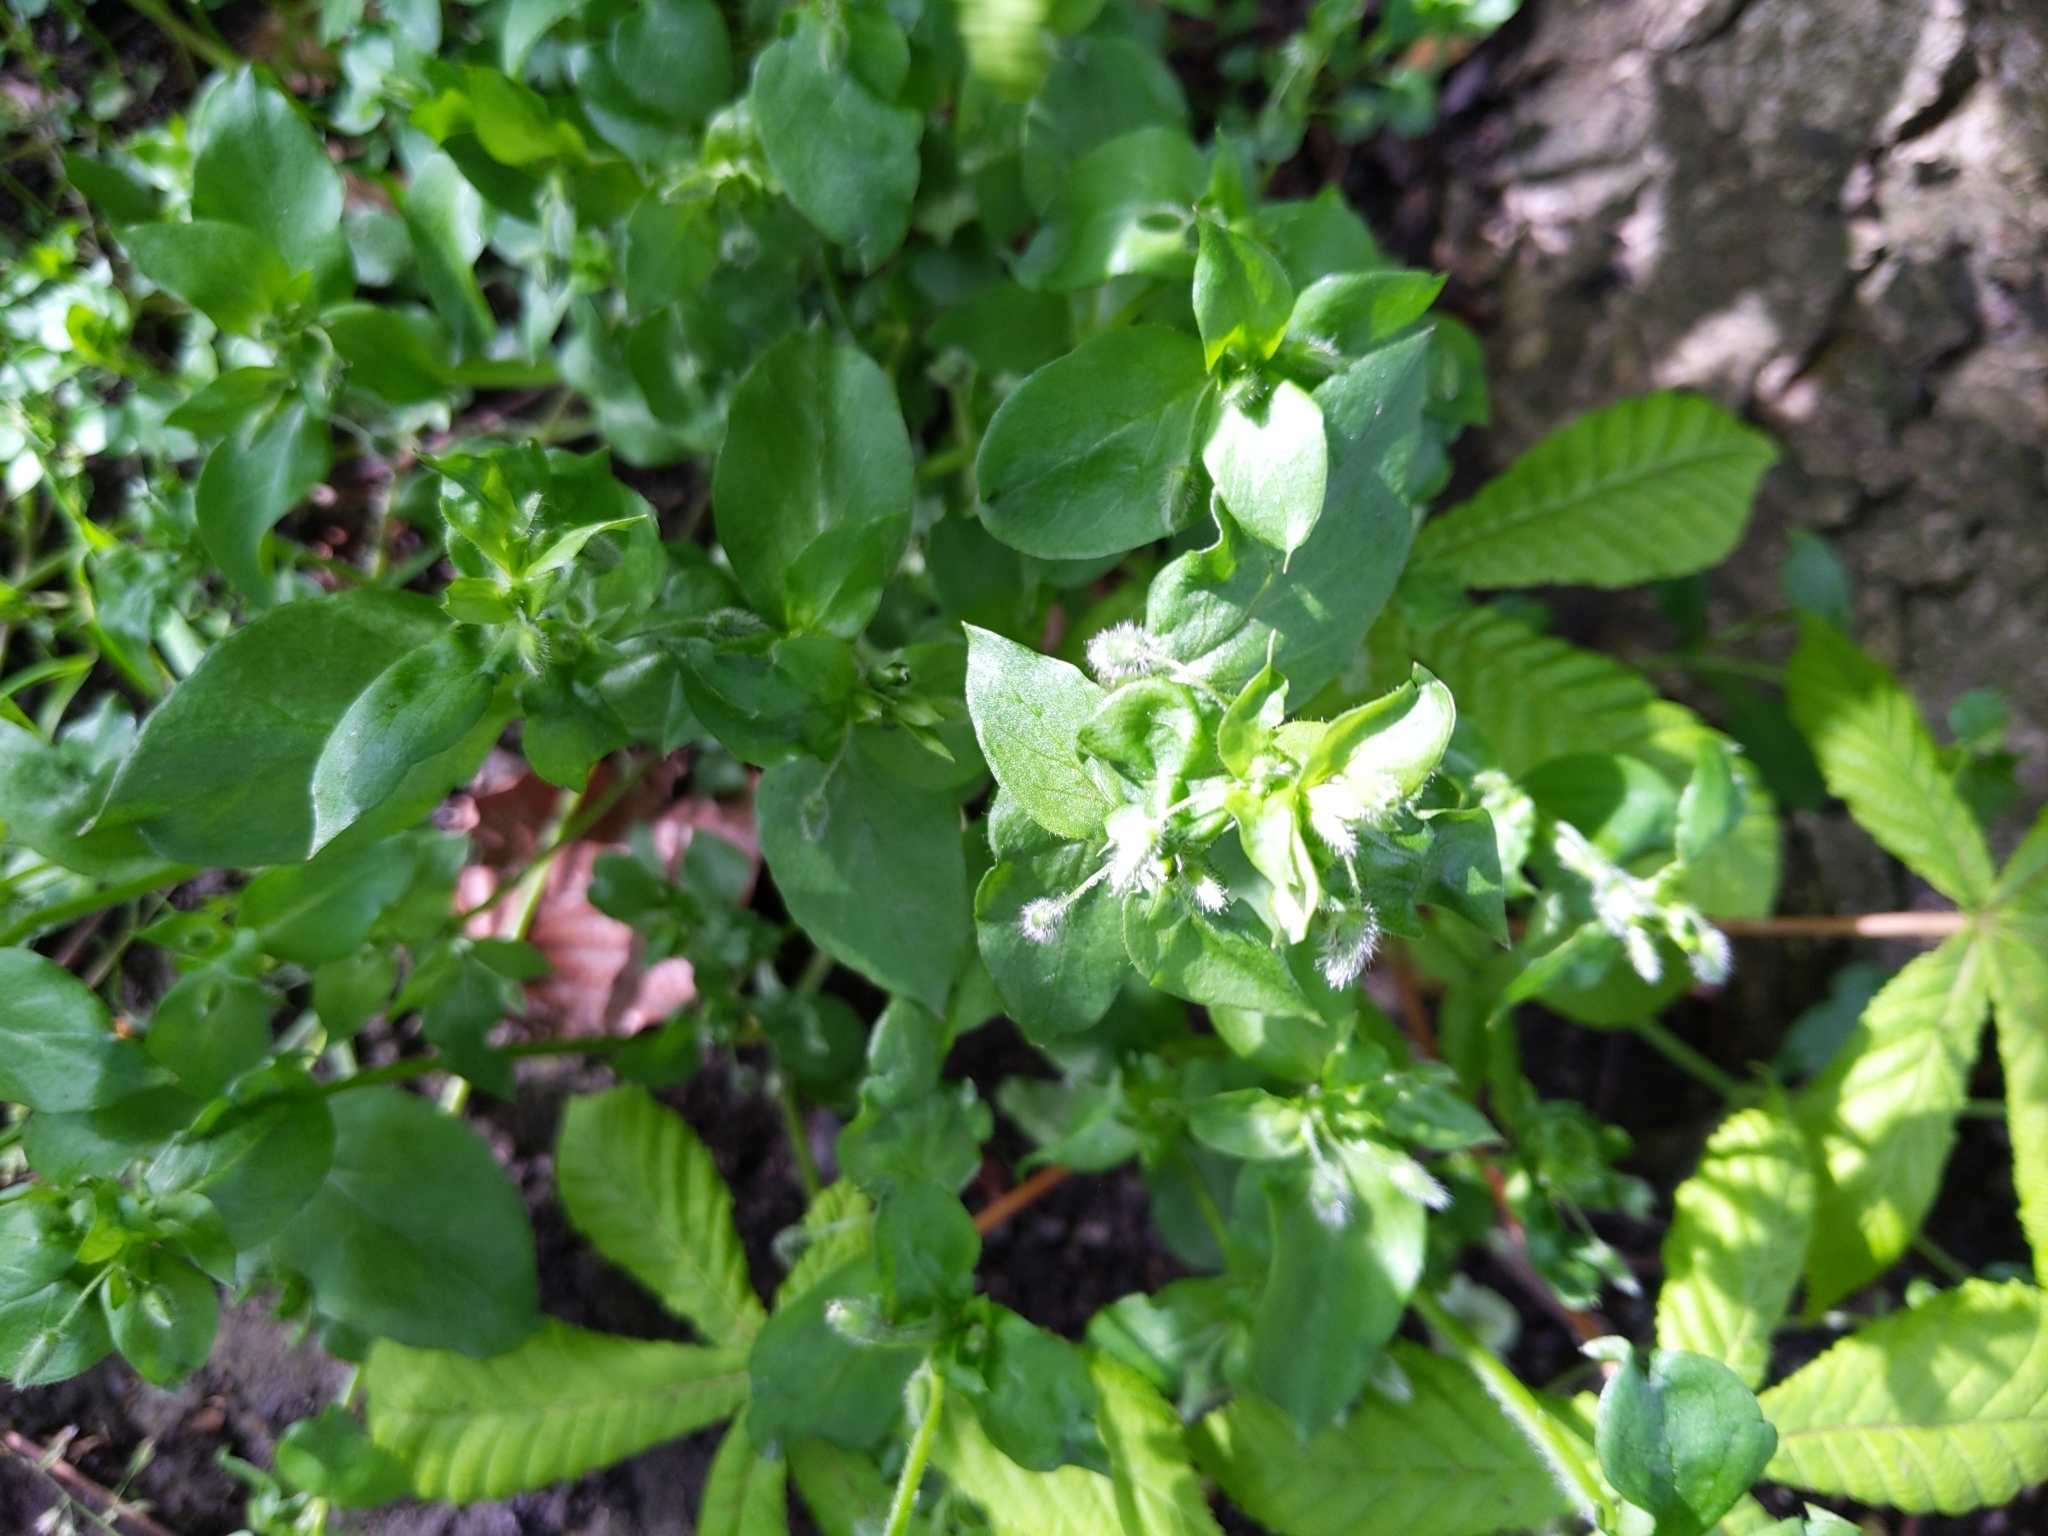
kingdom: Plantae
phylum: Tracheophyta
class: Magnoliopsida
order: Caryophyllales
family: Caryophyllaceae
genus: Stellaria
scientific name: Stellaria media
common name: Common chickweed
